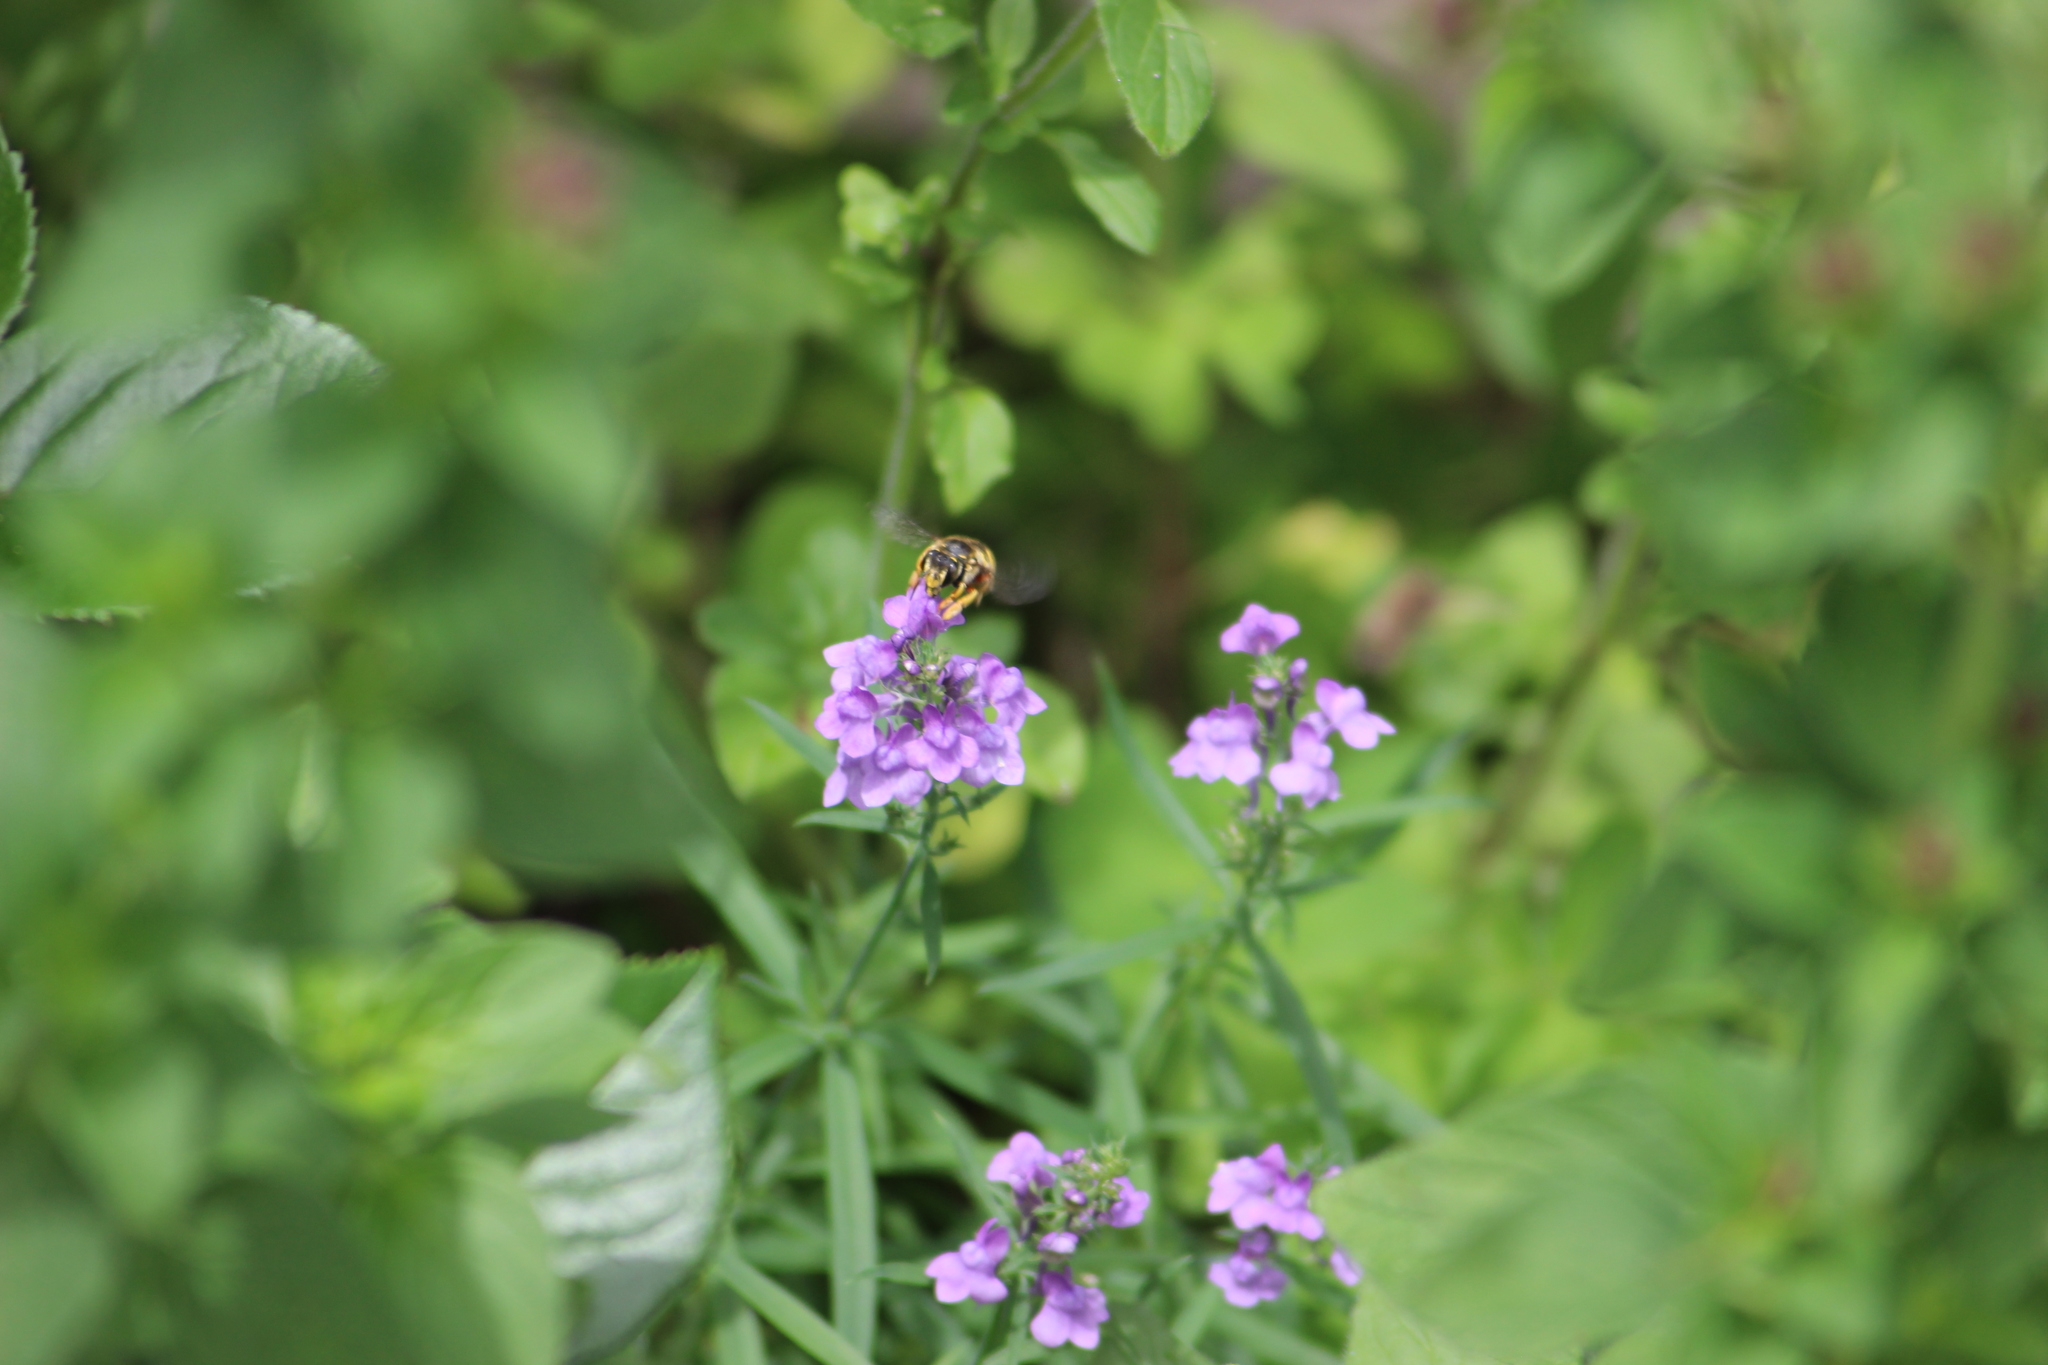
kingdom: Animalia
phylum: Arthropoda
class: Insecta
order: Hymenoptera
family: Megachilidae
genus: Anthidium
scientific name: Anthidium manicatum
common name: Wool carder bee
